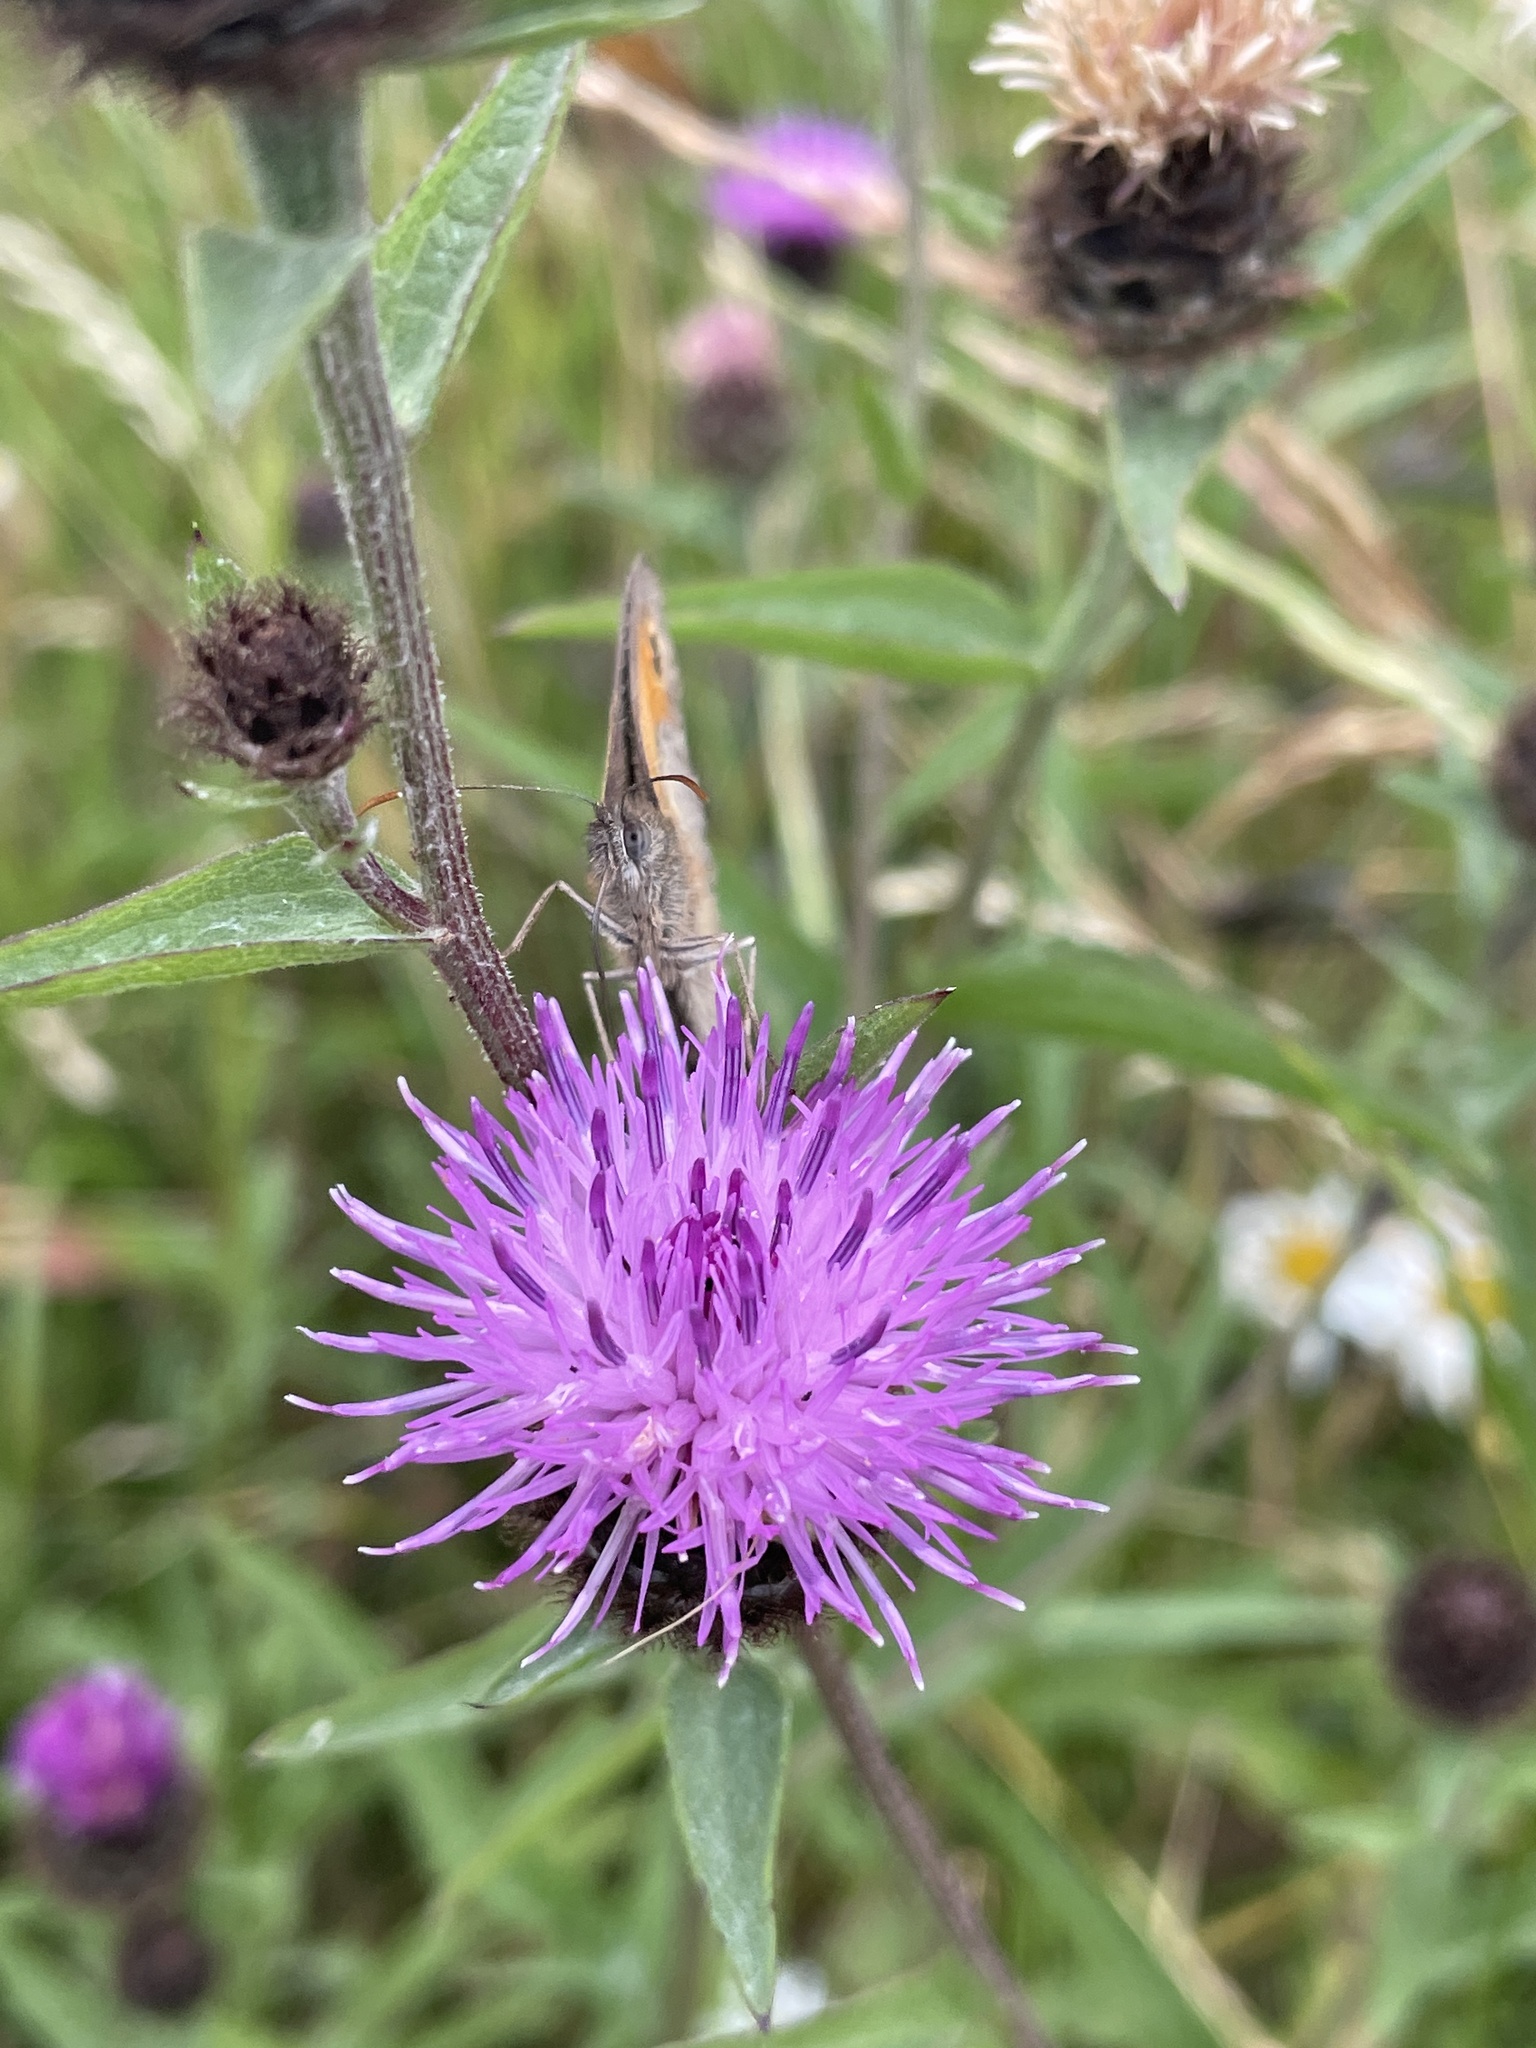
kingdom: Animalia
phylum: Arthropoda
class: Insecta
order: Lepidoptera
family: Nymphalidae
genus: Maniola
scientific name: Maniola jurtina
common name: Meadow brown
